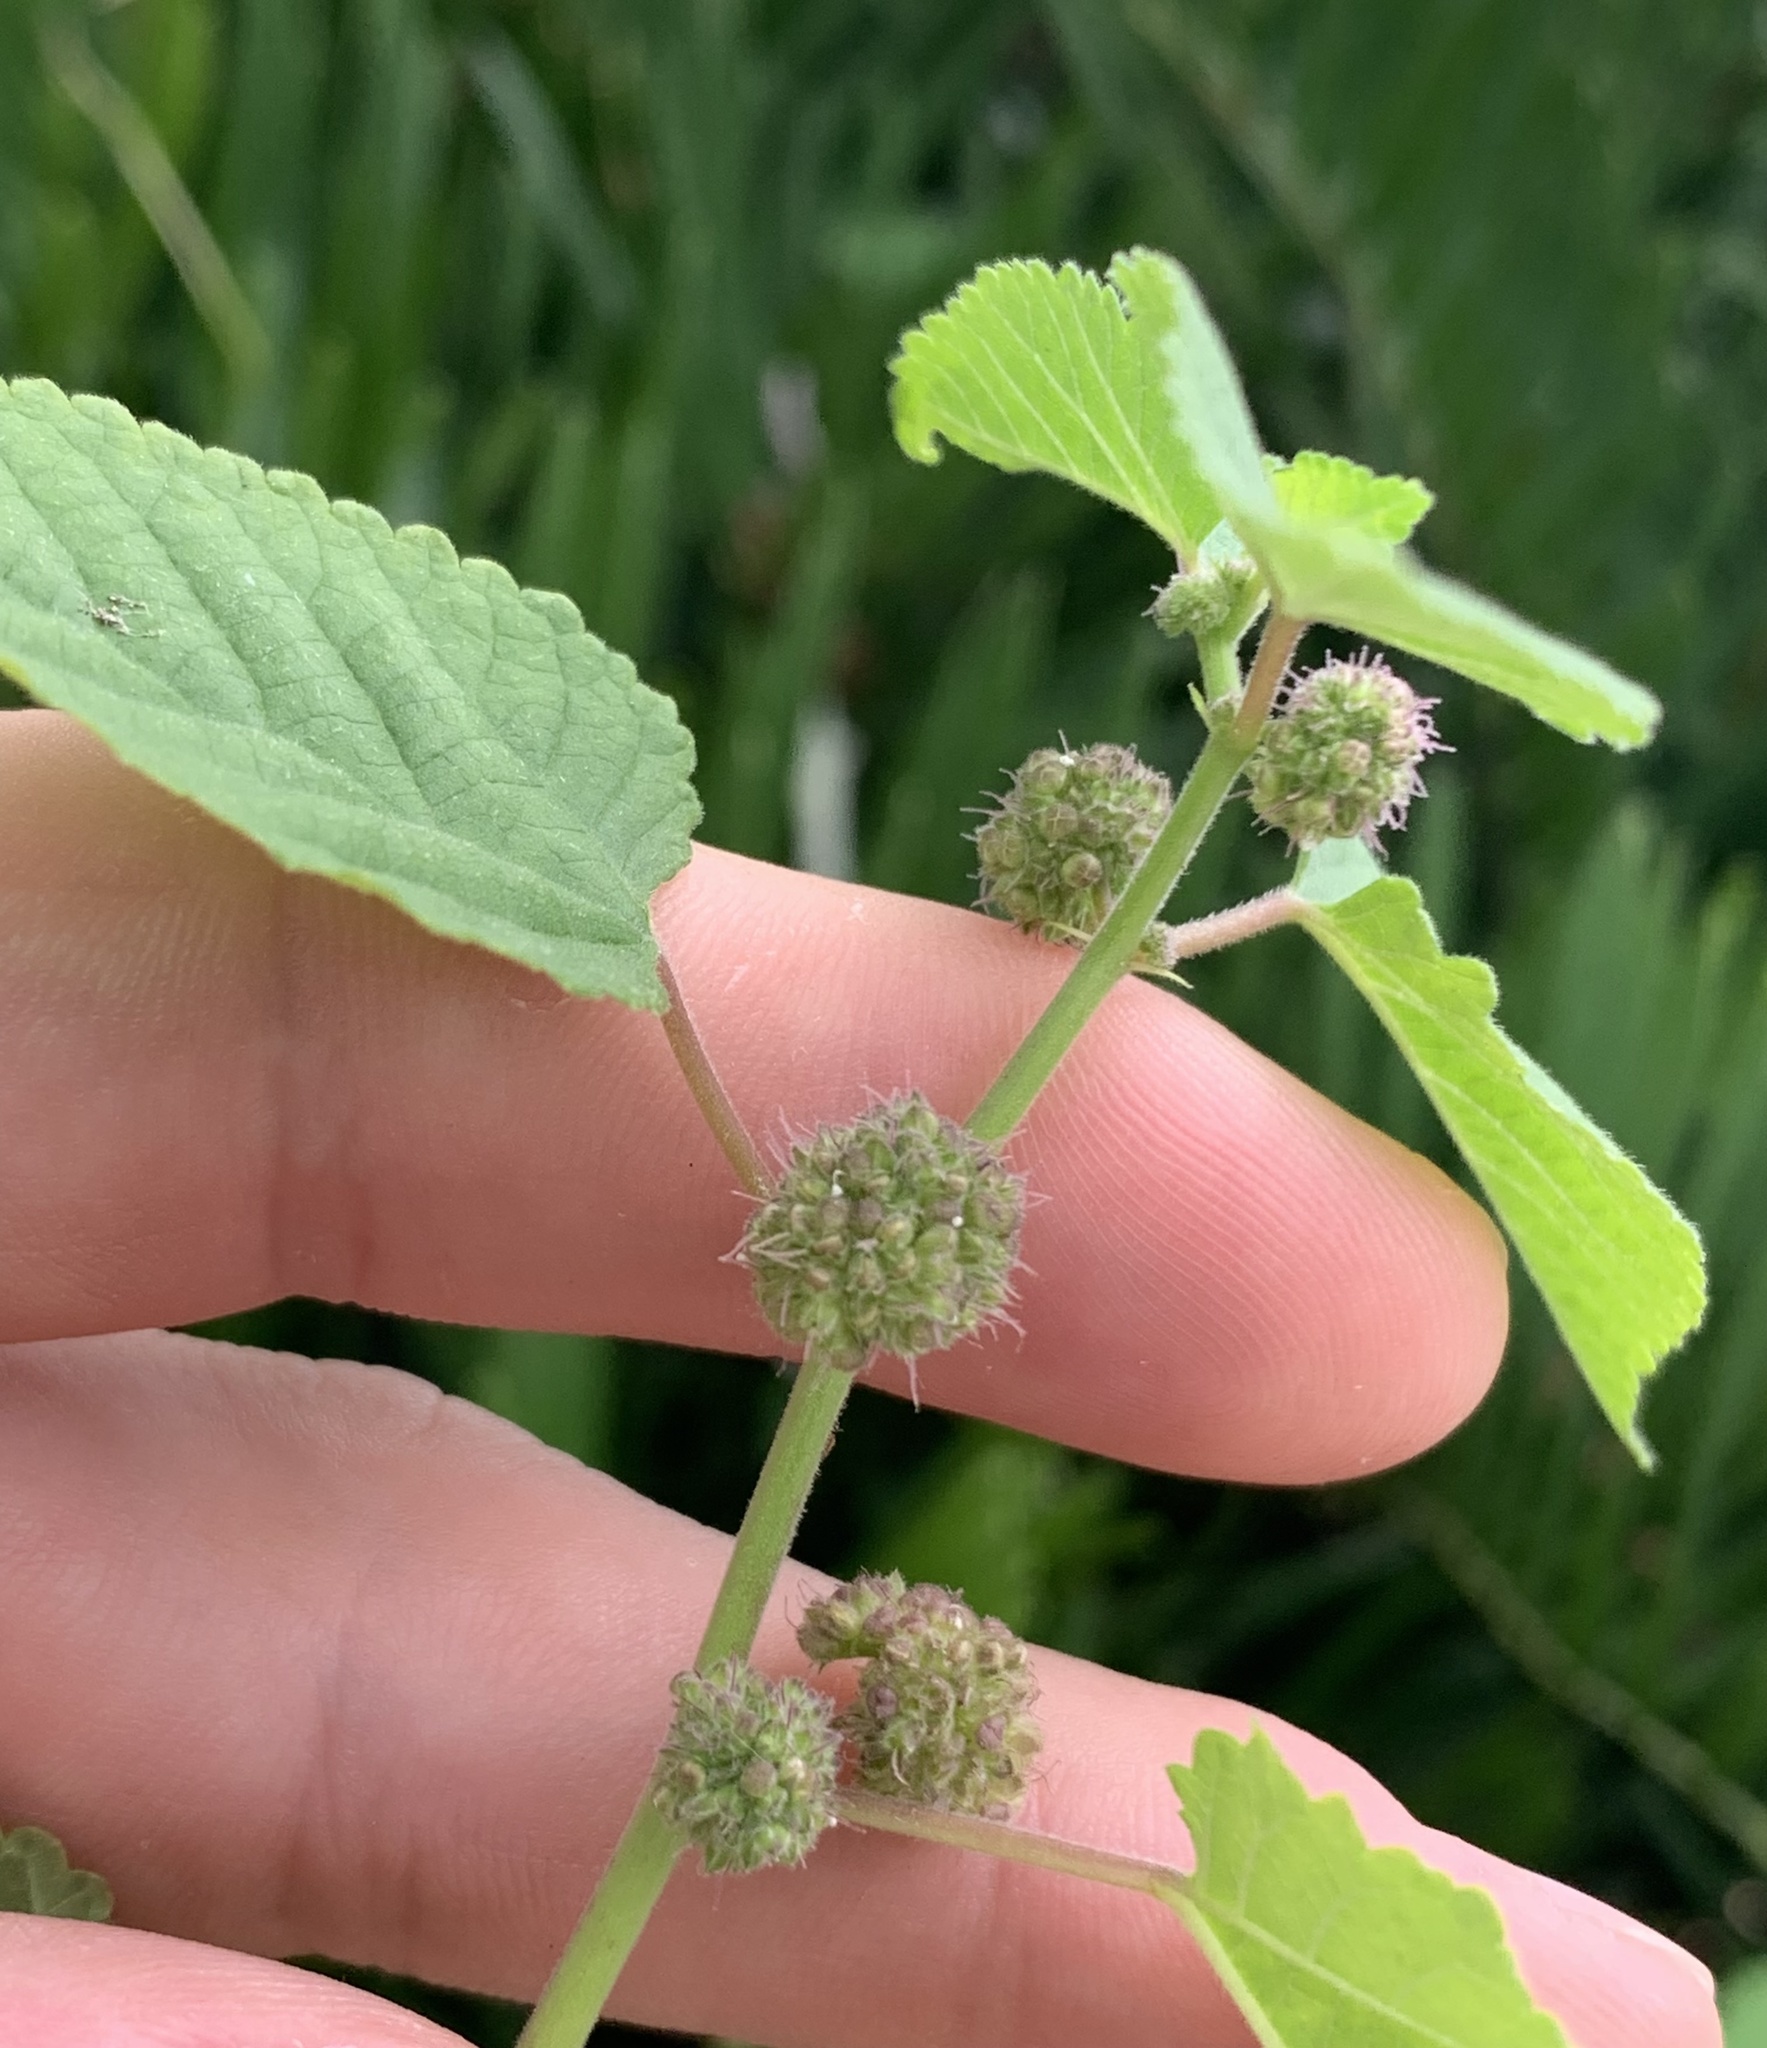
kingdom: Plantae
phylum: Tracheophyta
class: Magnoliopsida
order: Rosales
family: Moraceae
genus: Fatoua
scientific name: Fatoua villosa
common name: Hairy crabweed
